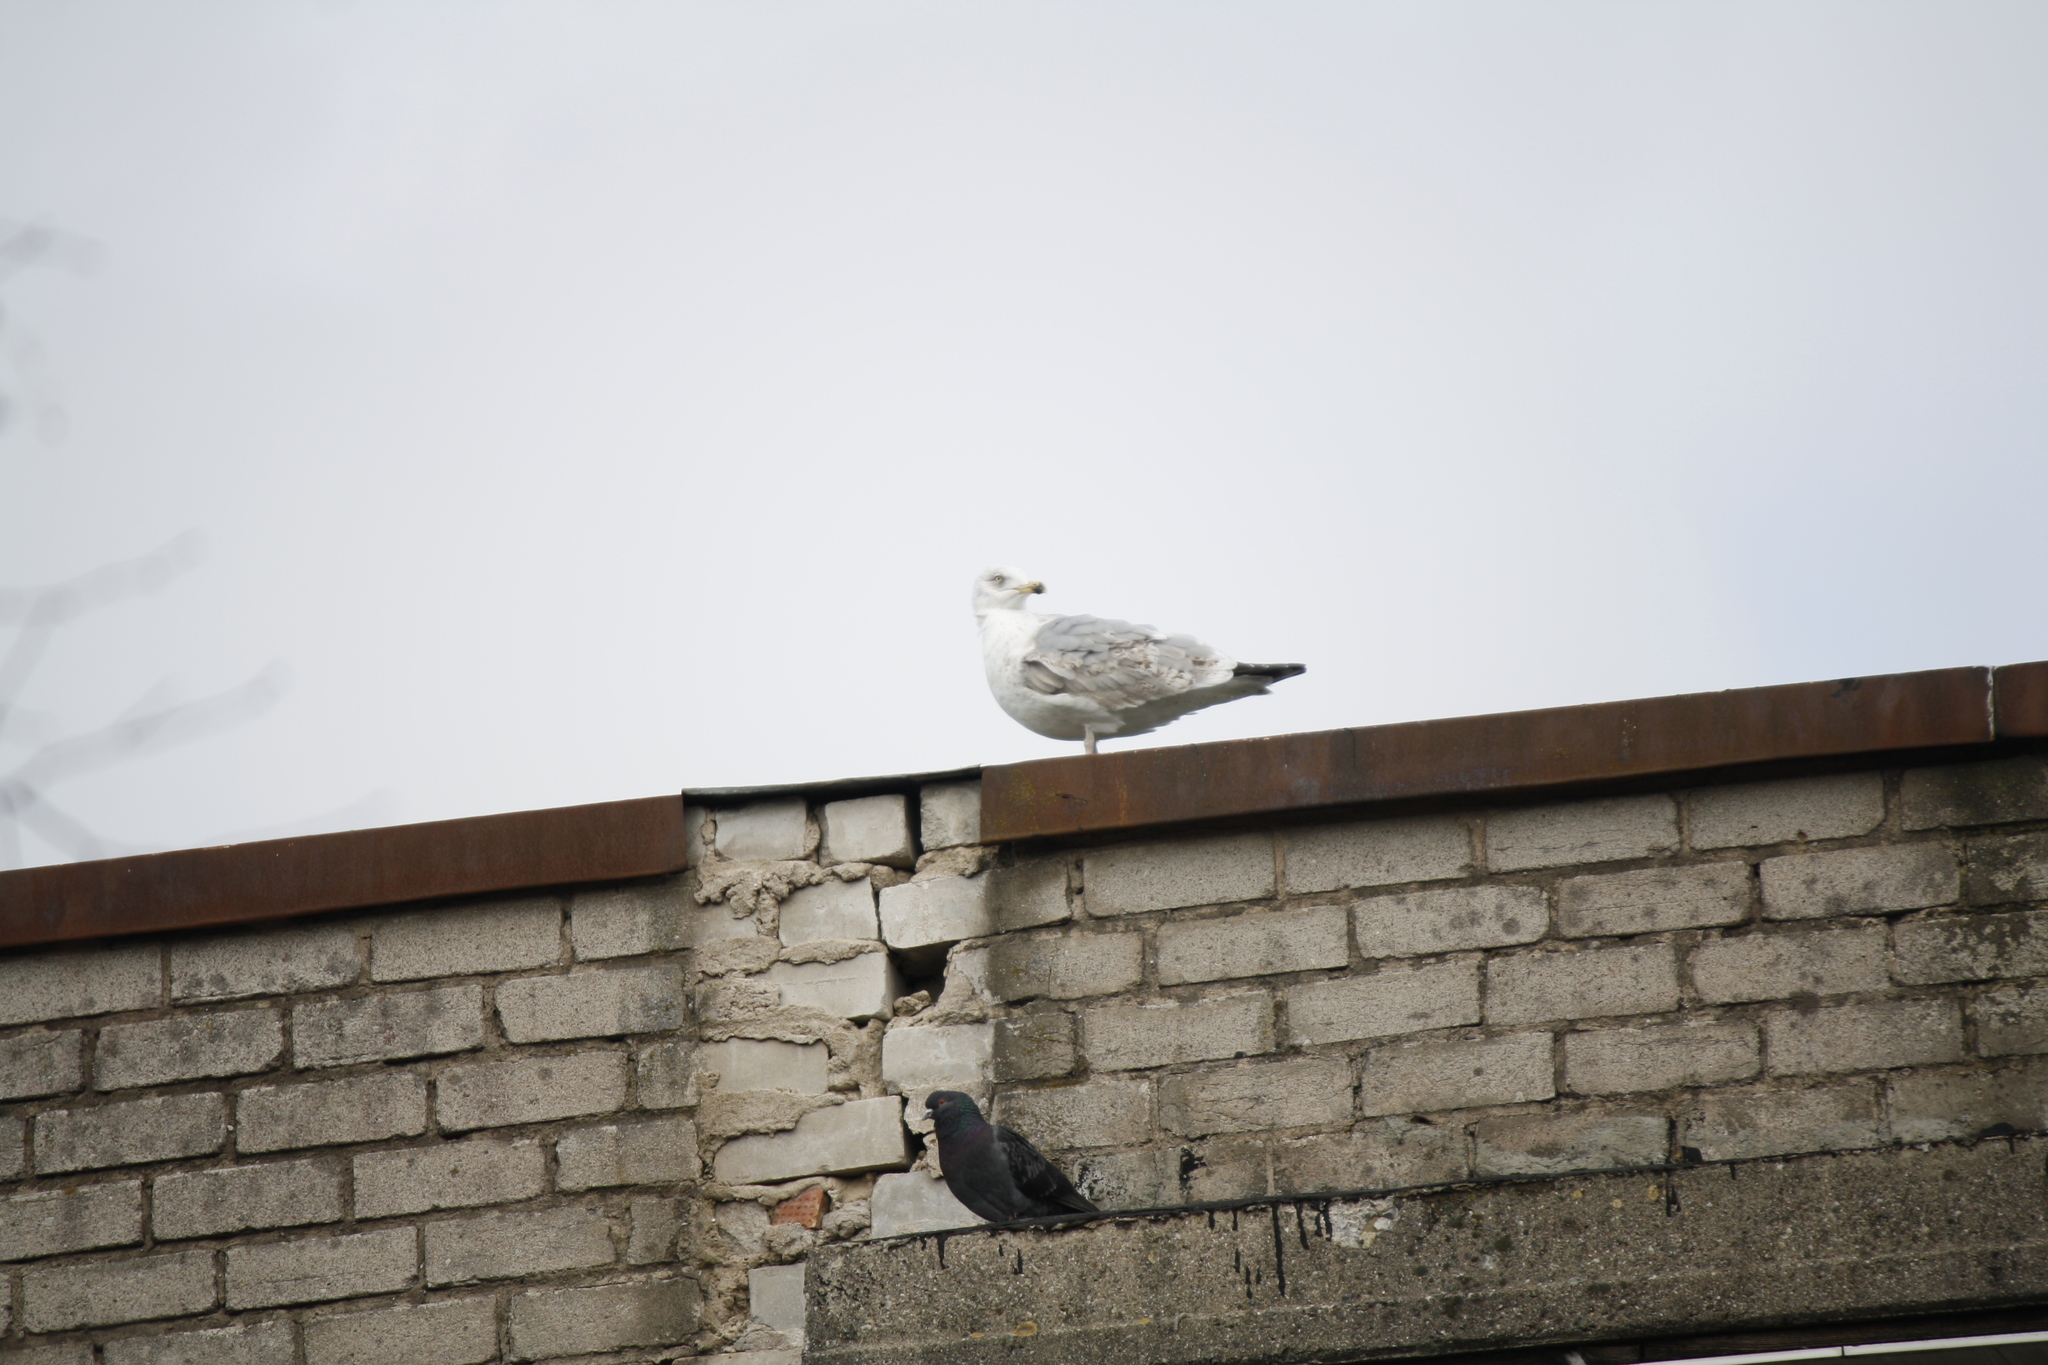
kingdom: Animalia
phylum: Chordata
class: Aves
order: Charadriiformes
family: Laridae
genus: Larus
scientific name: Larus argentatus
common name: Herring gull
